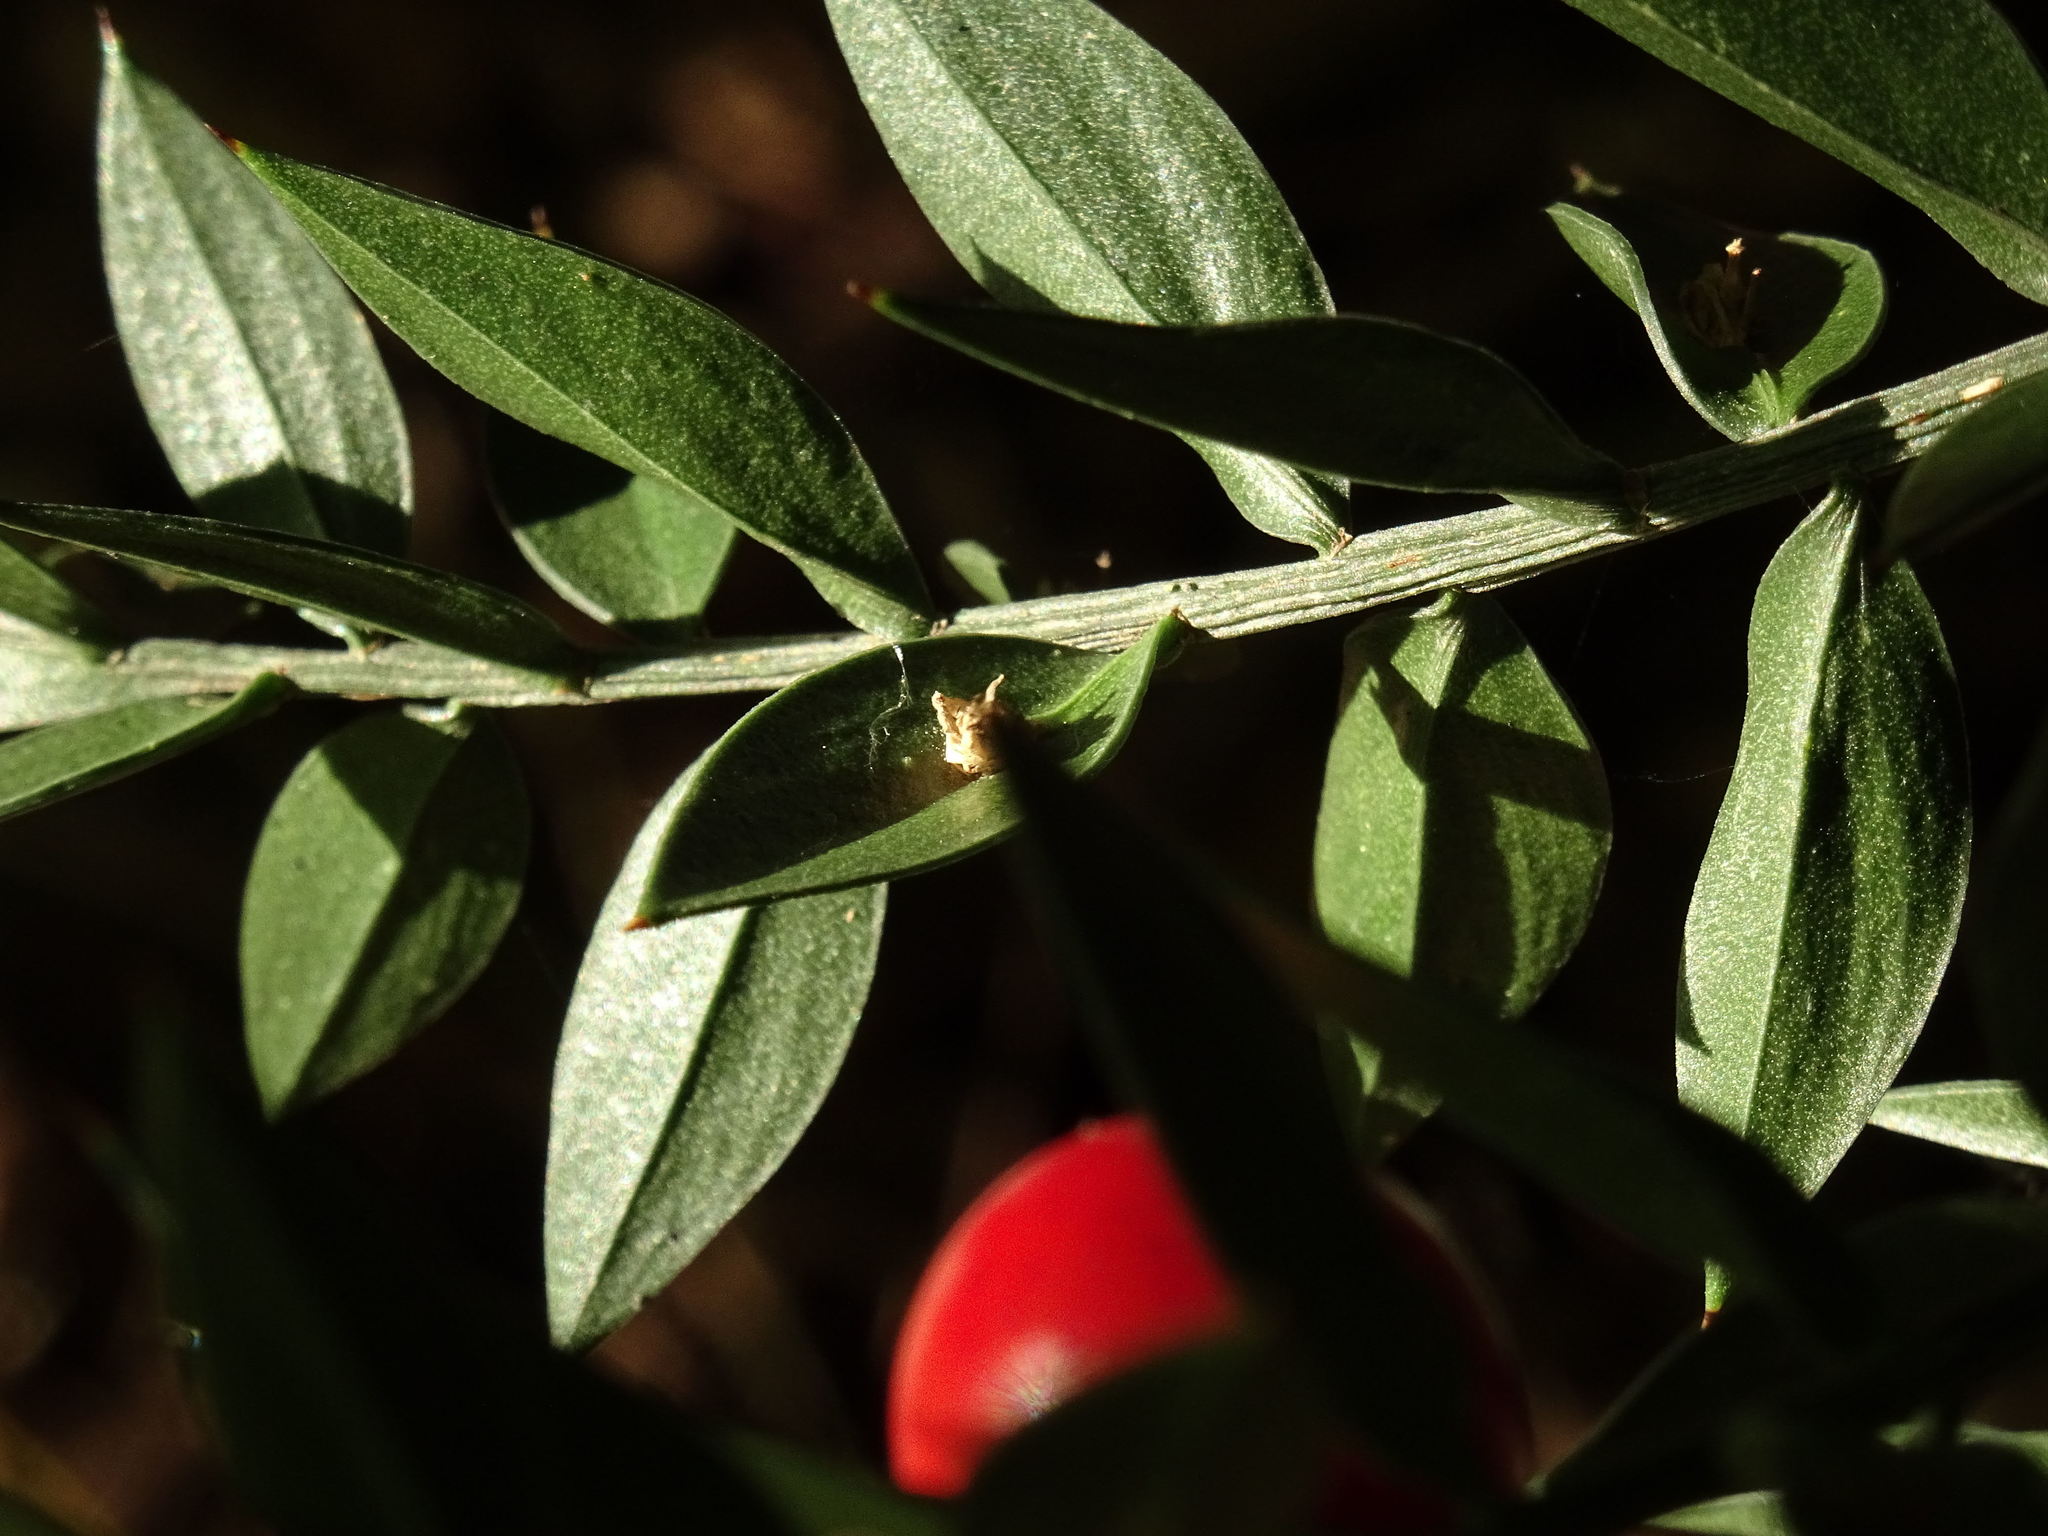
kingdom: Plantae
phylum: Tracheophyta
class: Liliopsida
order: Asparagales
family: Asparagaceae
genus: Ruscus
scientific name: Ruscus aculeatus
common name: Butcher's-broom
